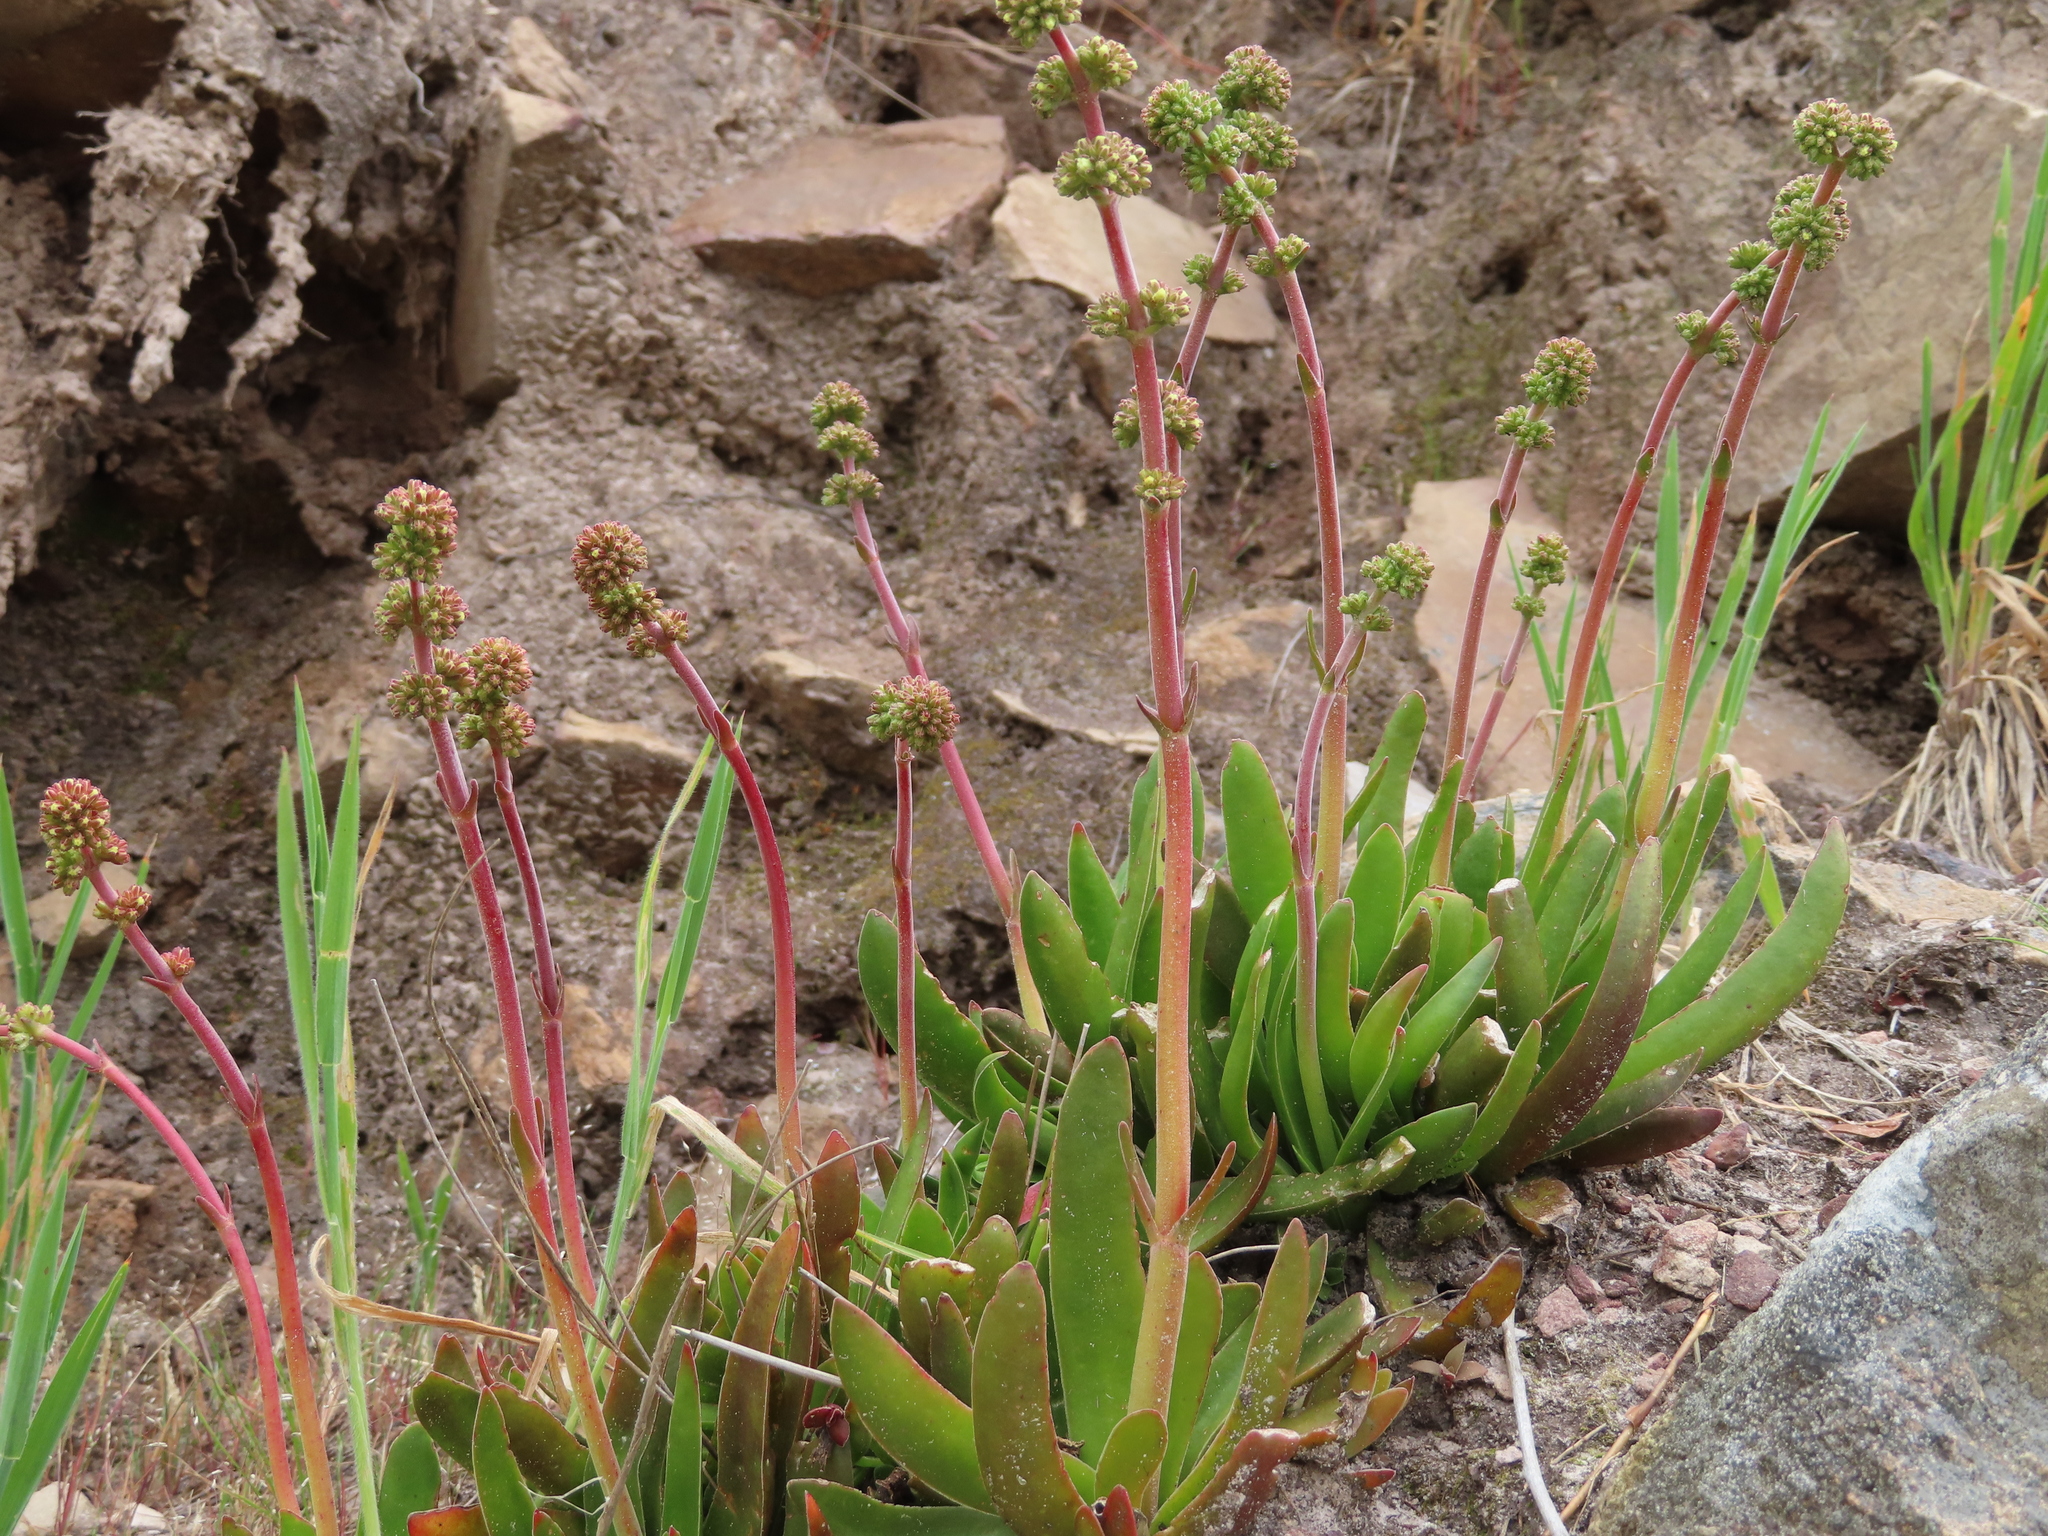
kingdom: Plantae
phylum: Tracheophyta
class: Magnoliopsida
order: Saxifragales
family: Crassulaceae
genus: Crassula
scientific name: Crassula nudicaulis
